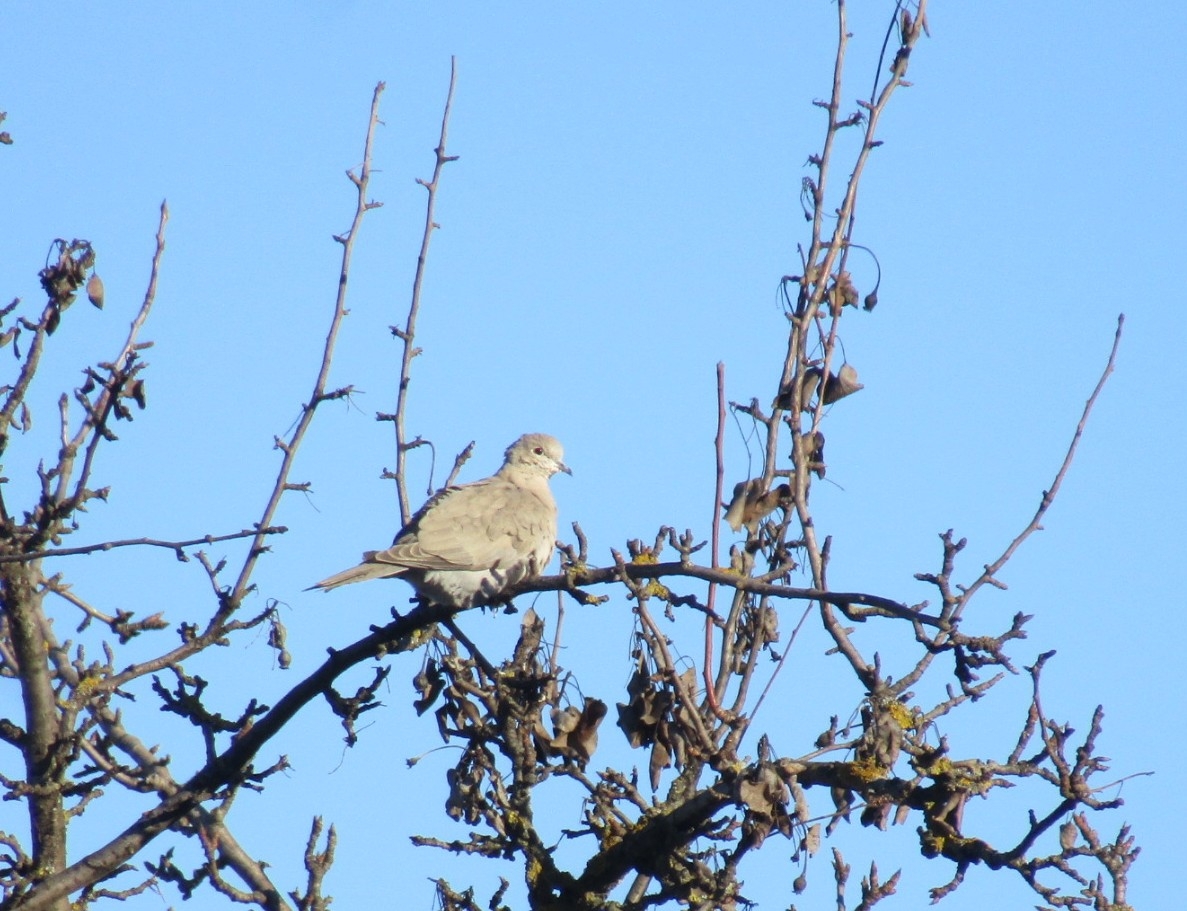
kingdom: Animalia
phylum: Chordata
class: Aves
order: Columbiformes
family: Columbidae
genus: Streptopelia
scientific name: Streptopelia decaocto
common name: Eurasian collared dove
